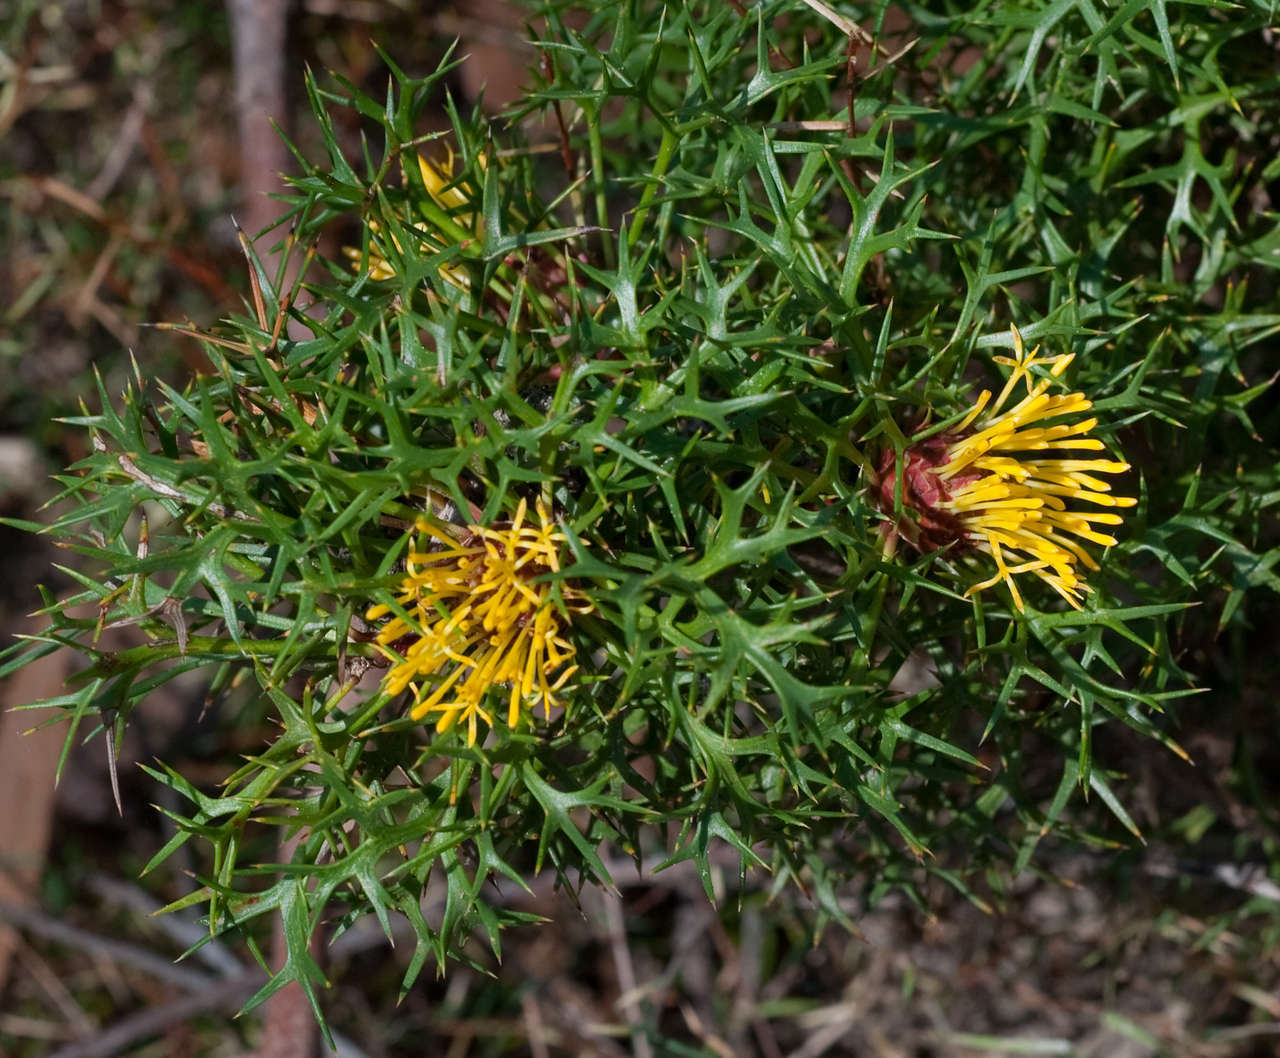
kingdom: Plantae
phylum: Tracheophyta
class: Magnoliopsida
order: Proteales
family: Proteaceae
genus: Isopogon
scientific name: Isopogon ceratophyllus
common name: Horny cone-bush
